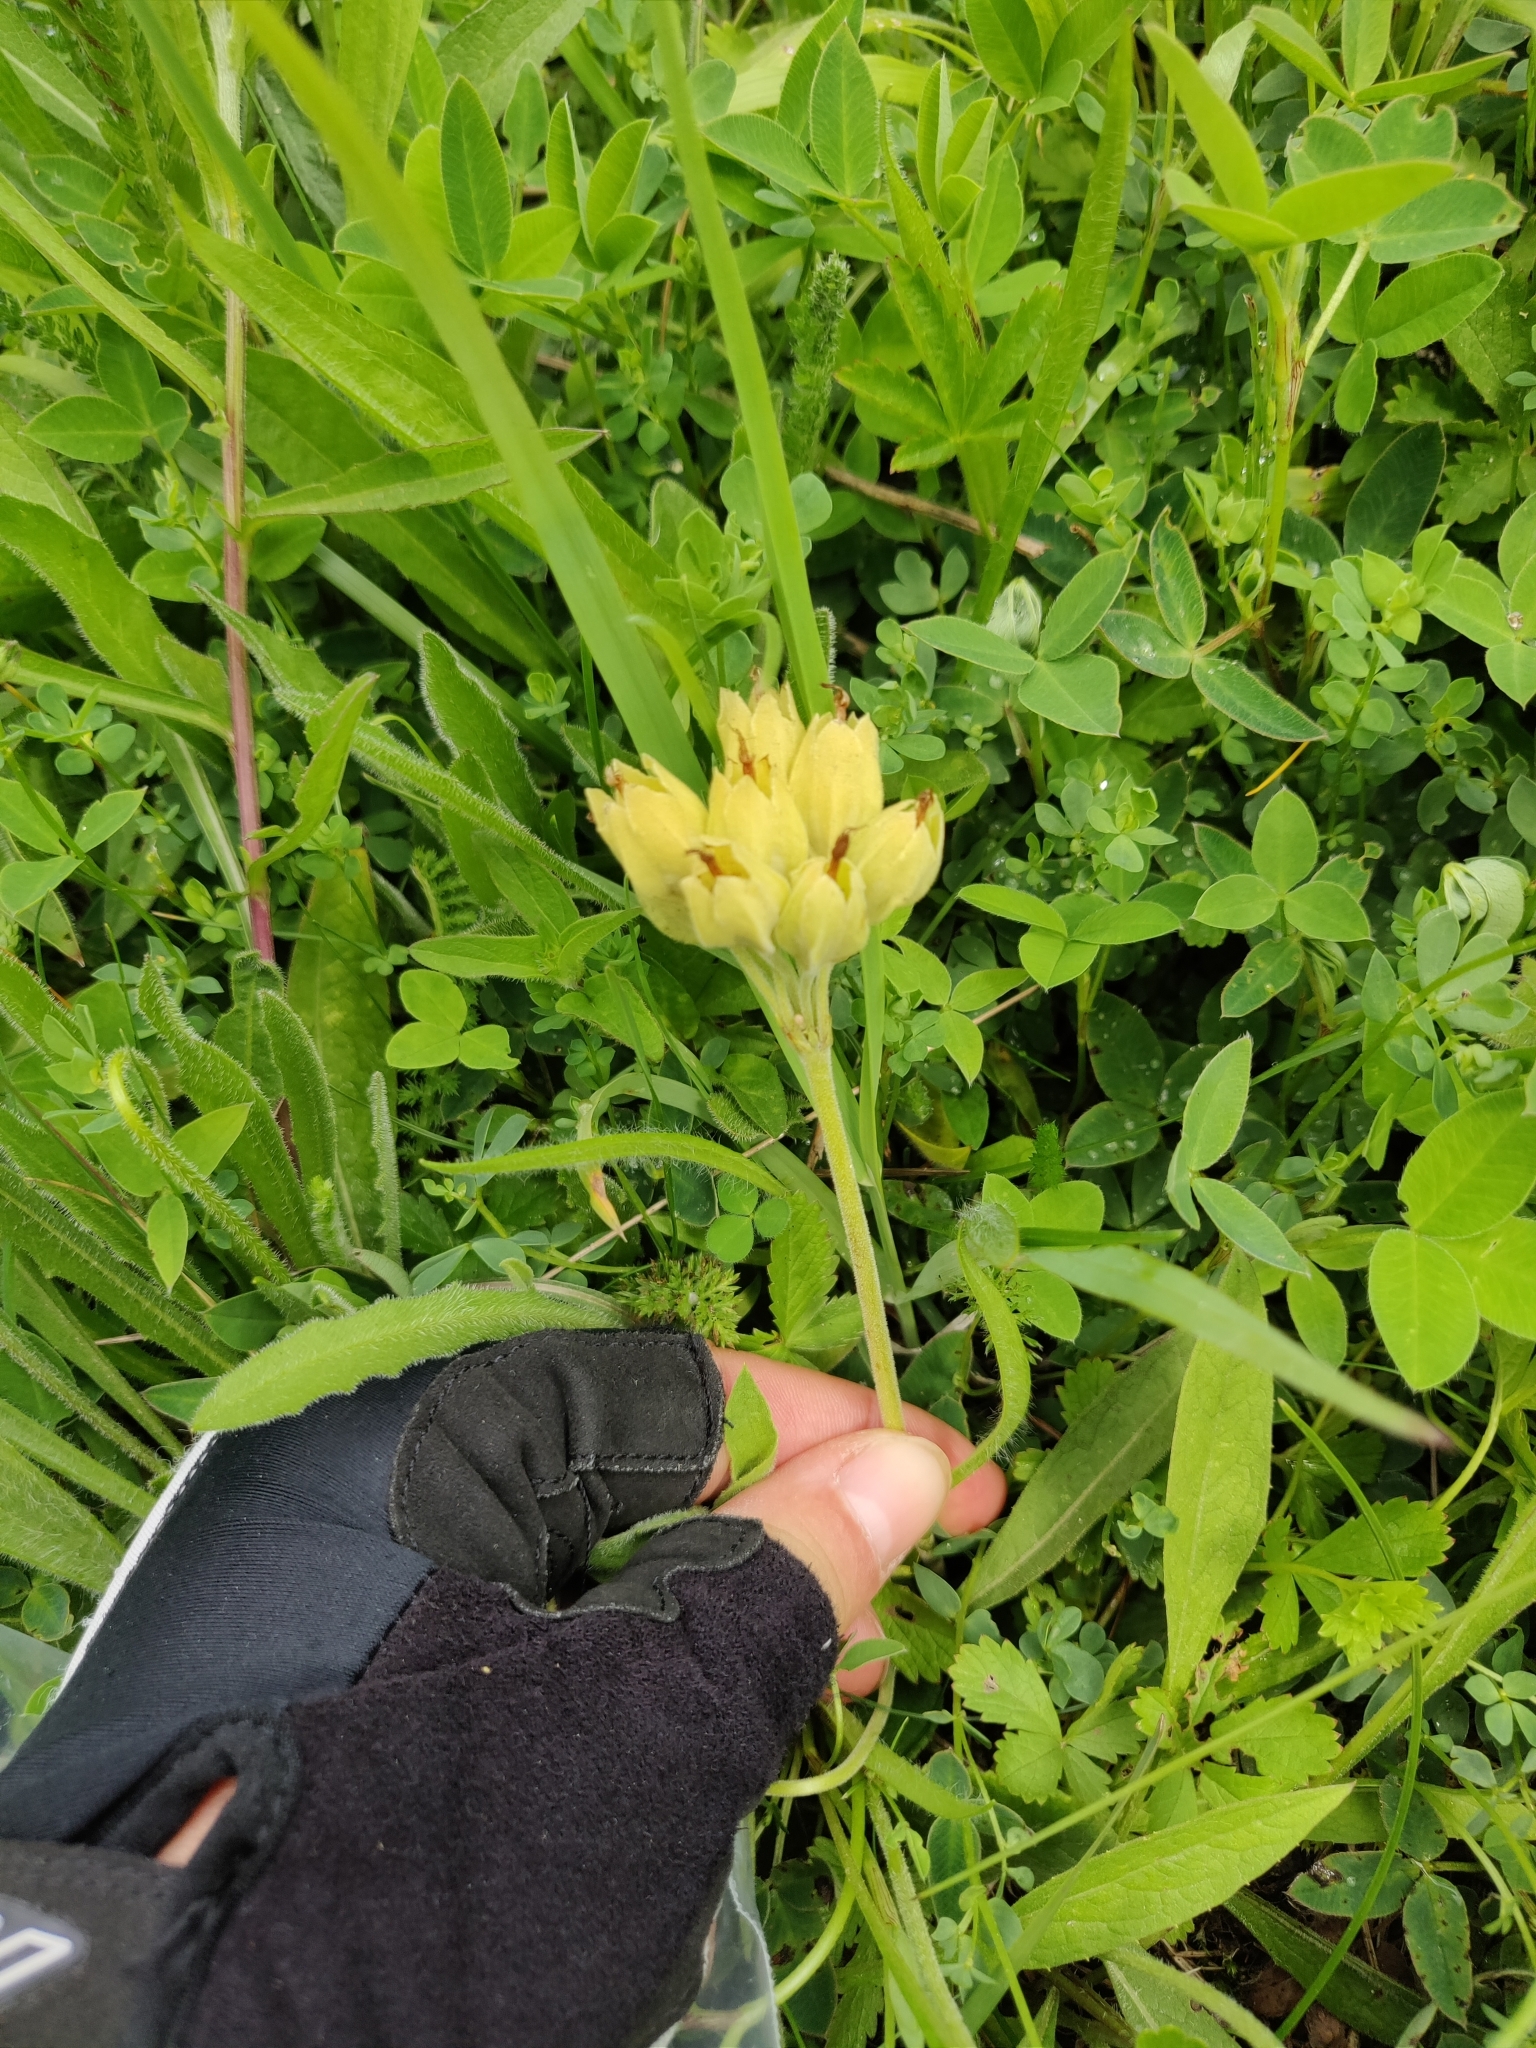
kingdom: Plantae
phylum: Tracheophyta
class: Magnoliopsida
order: Ericales
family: Primulaceae
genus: Primula
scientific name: Primula veris
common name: Cowslip
